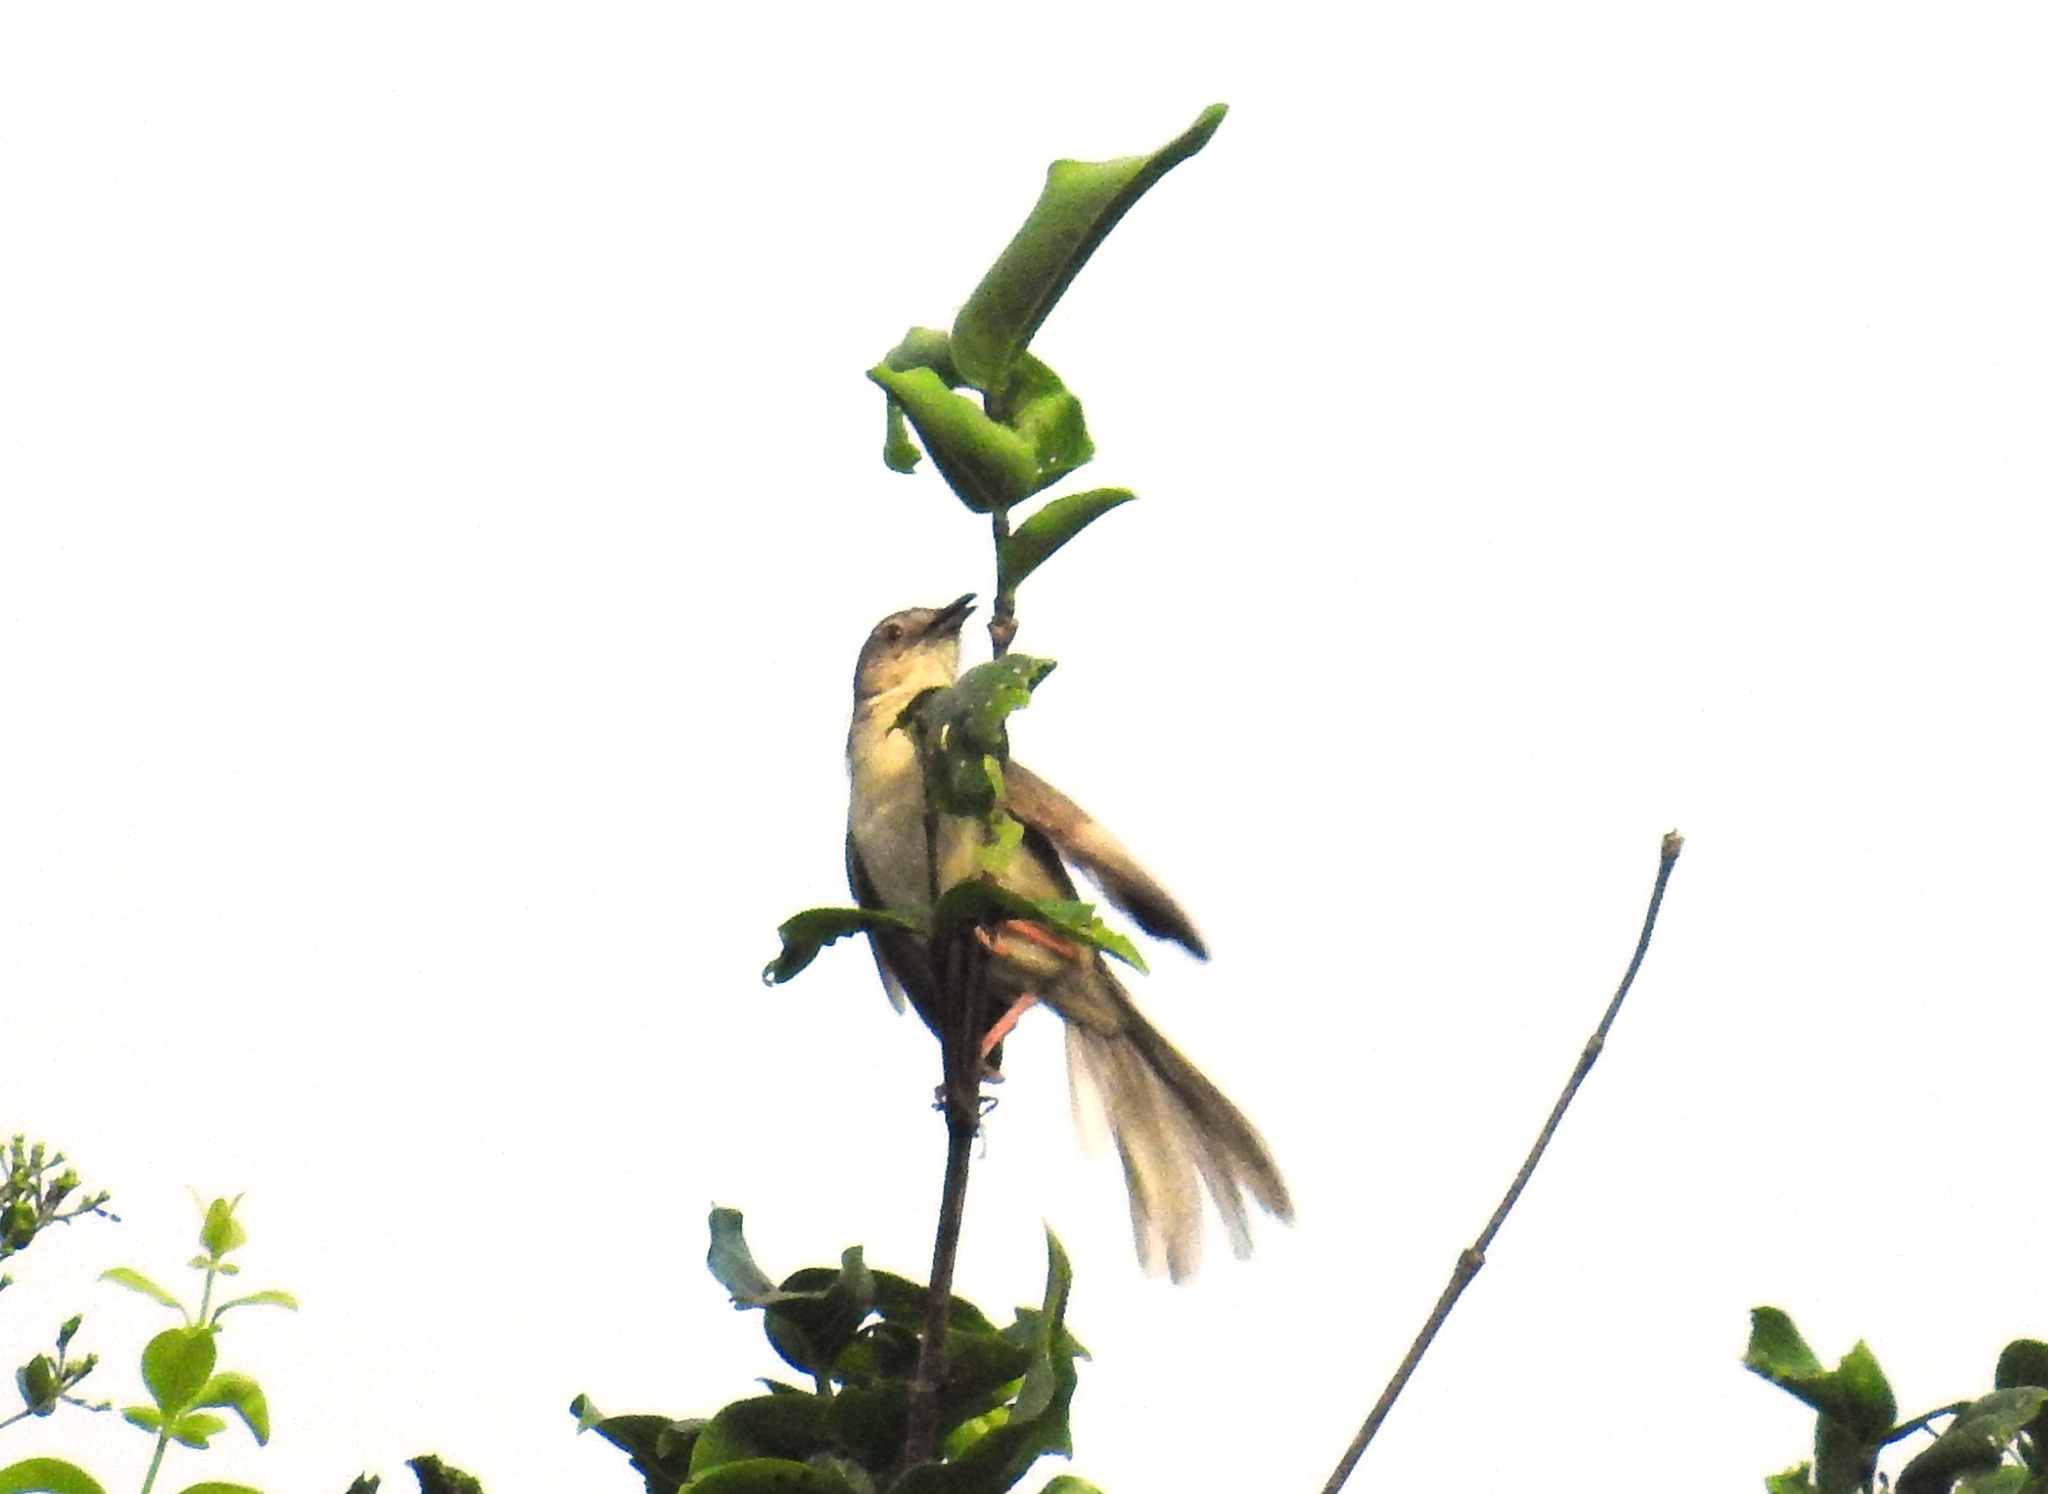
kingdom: Animalia
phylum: Chordata
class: Aves
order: Passeriformes
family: Cisticolidae
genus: Prinia
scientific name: Prinia inornata
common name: Plain prinia
